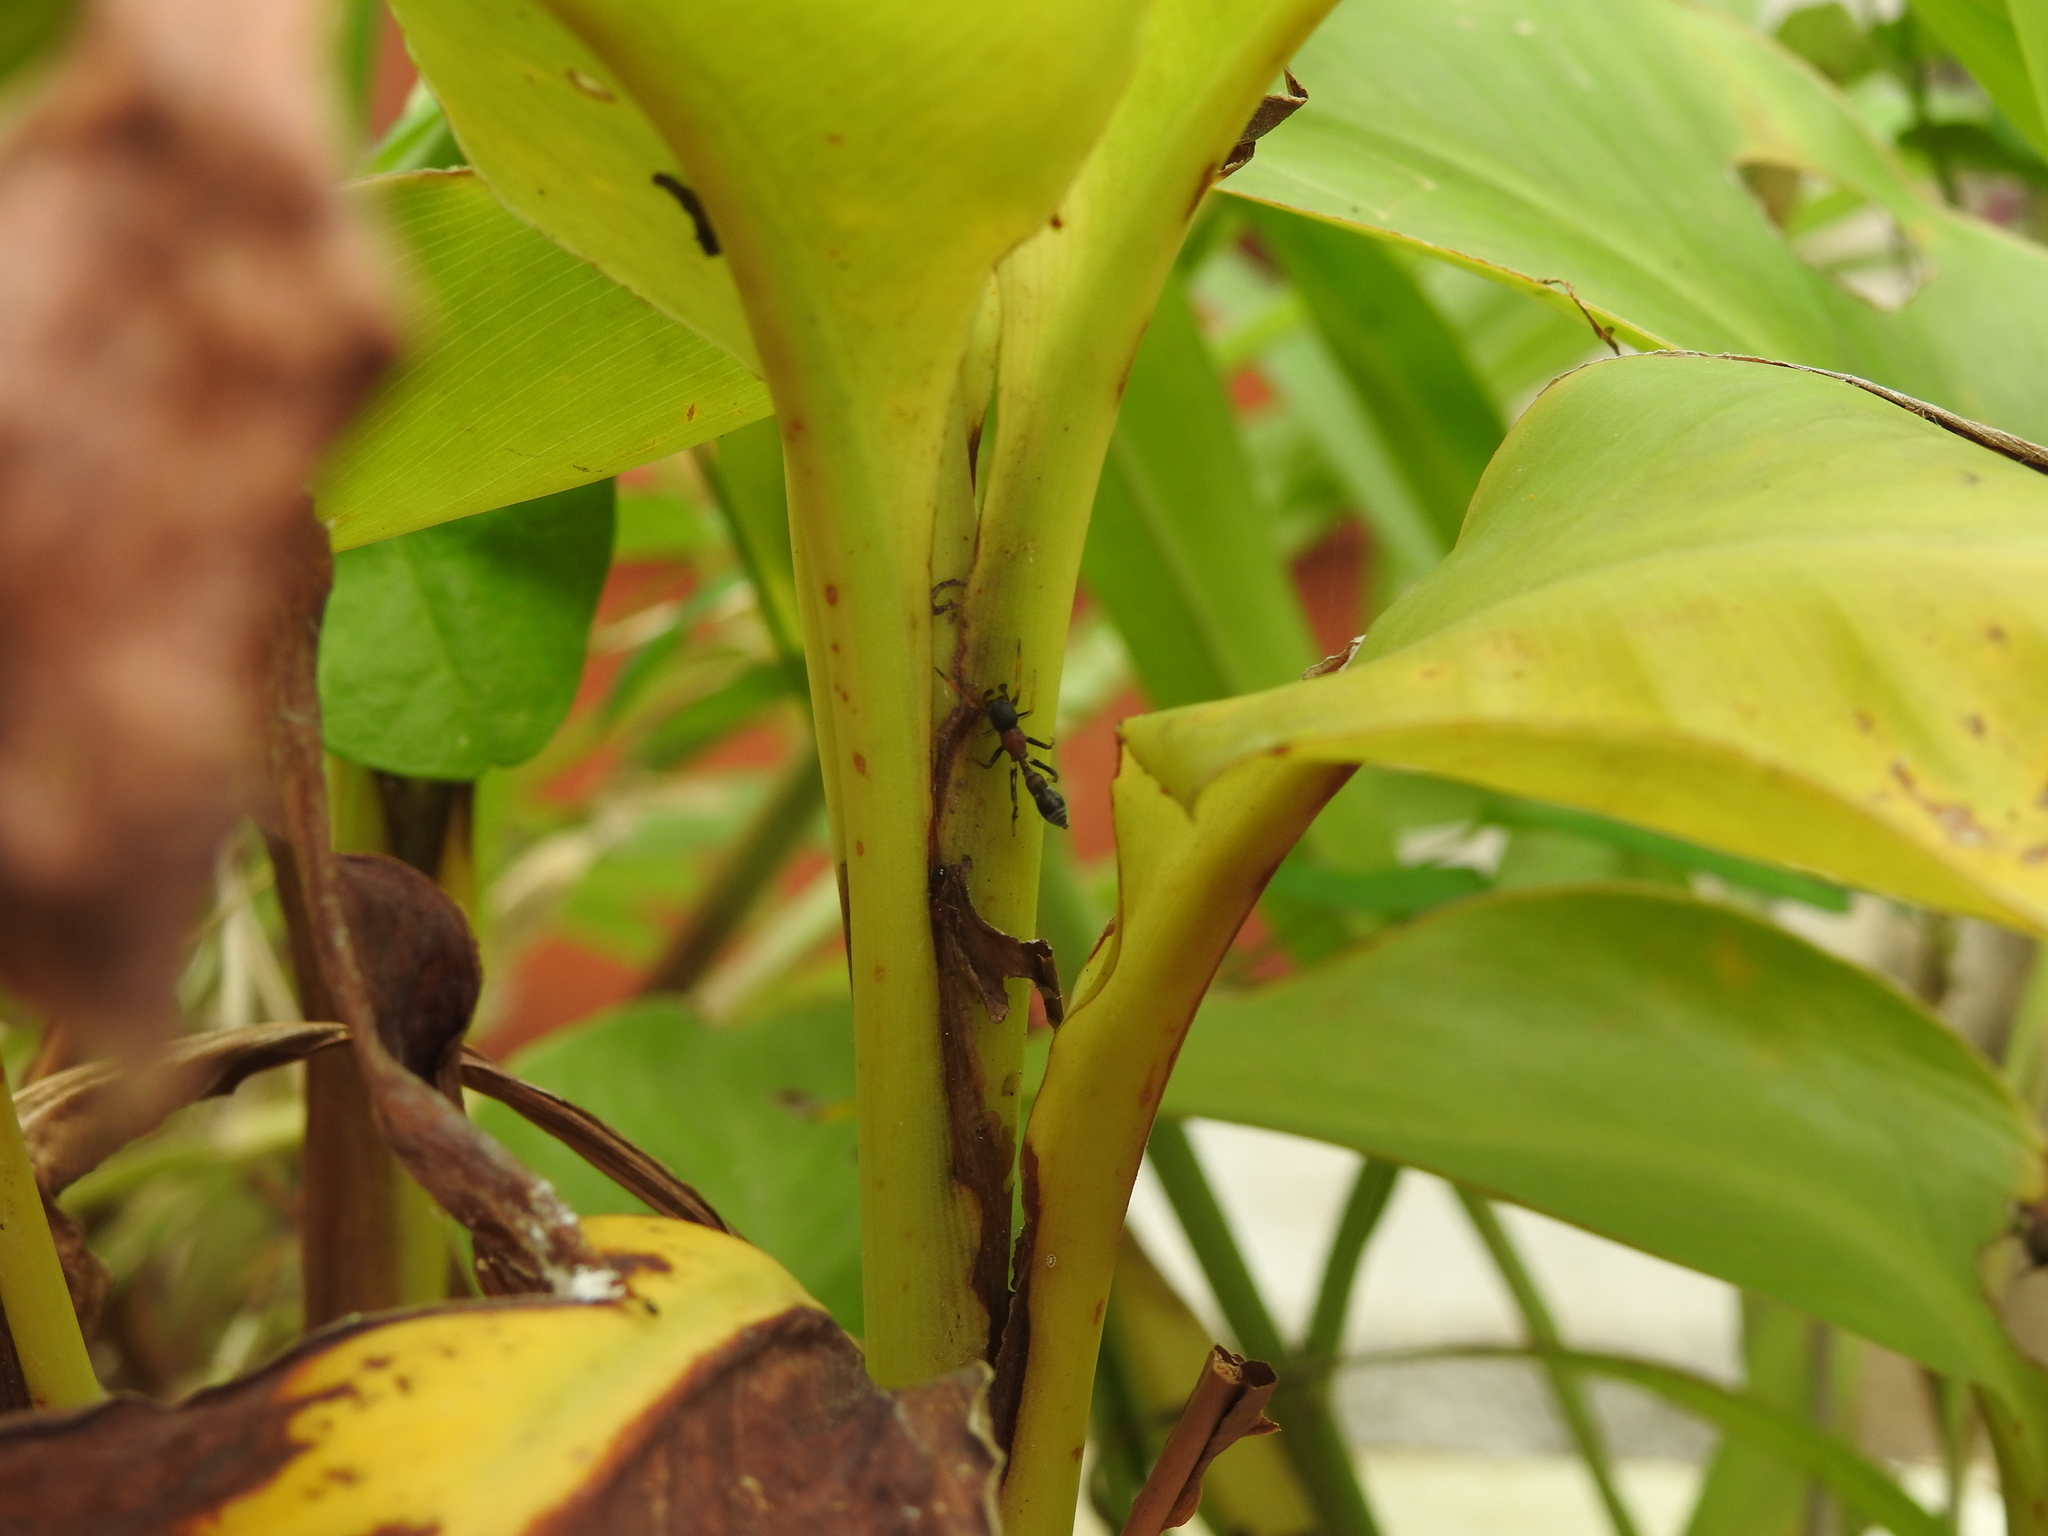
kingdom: Animalia
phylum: Arthropoda
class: Arachnida
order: Araneae
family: Salticidae
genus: Myrmarachne
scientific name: Myrmarachne melanocephala
